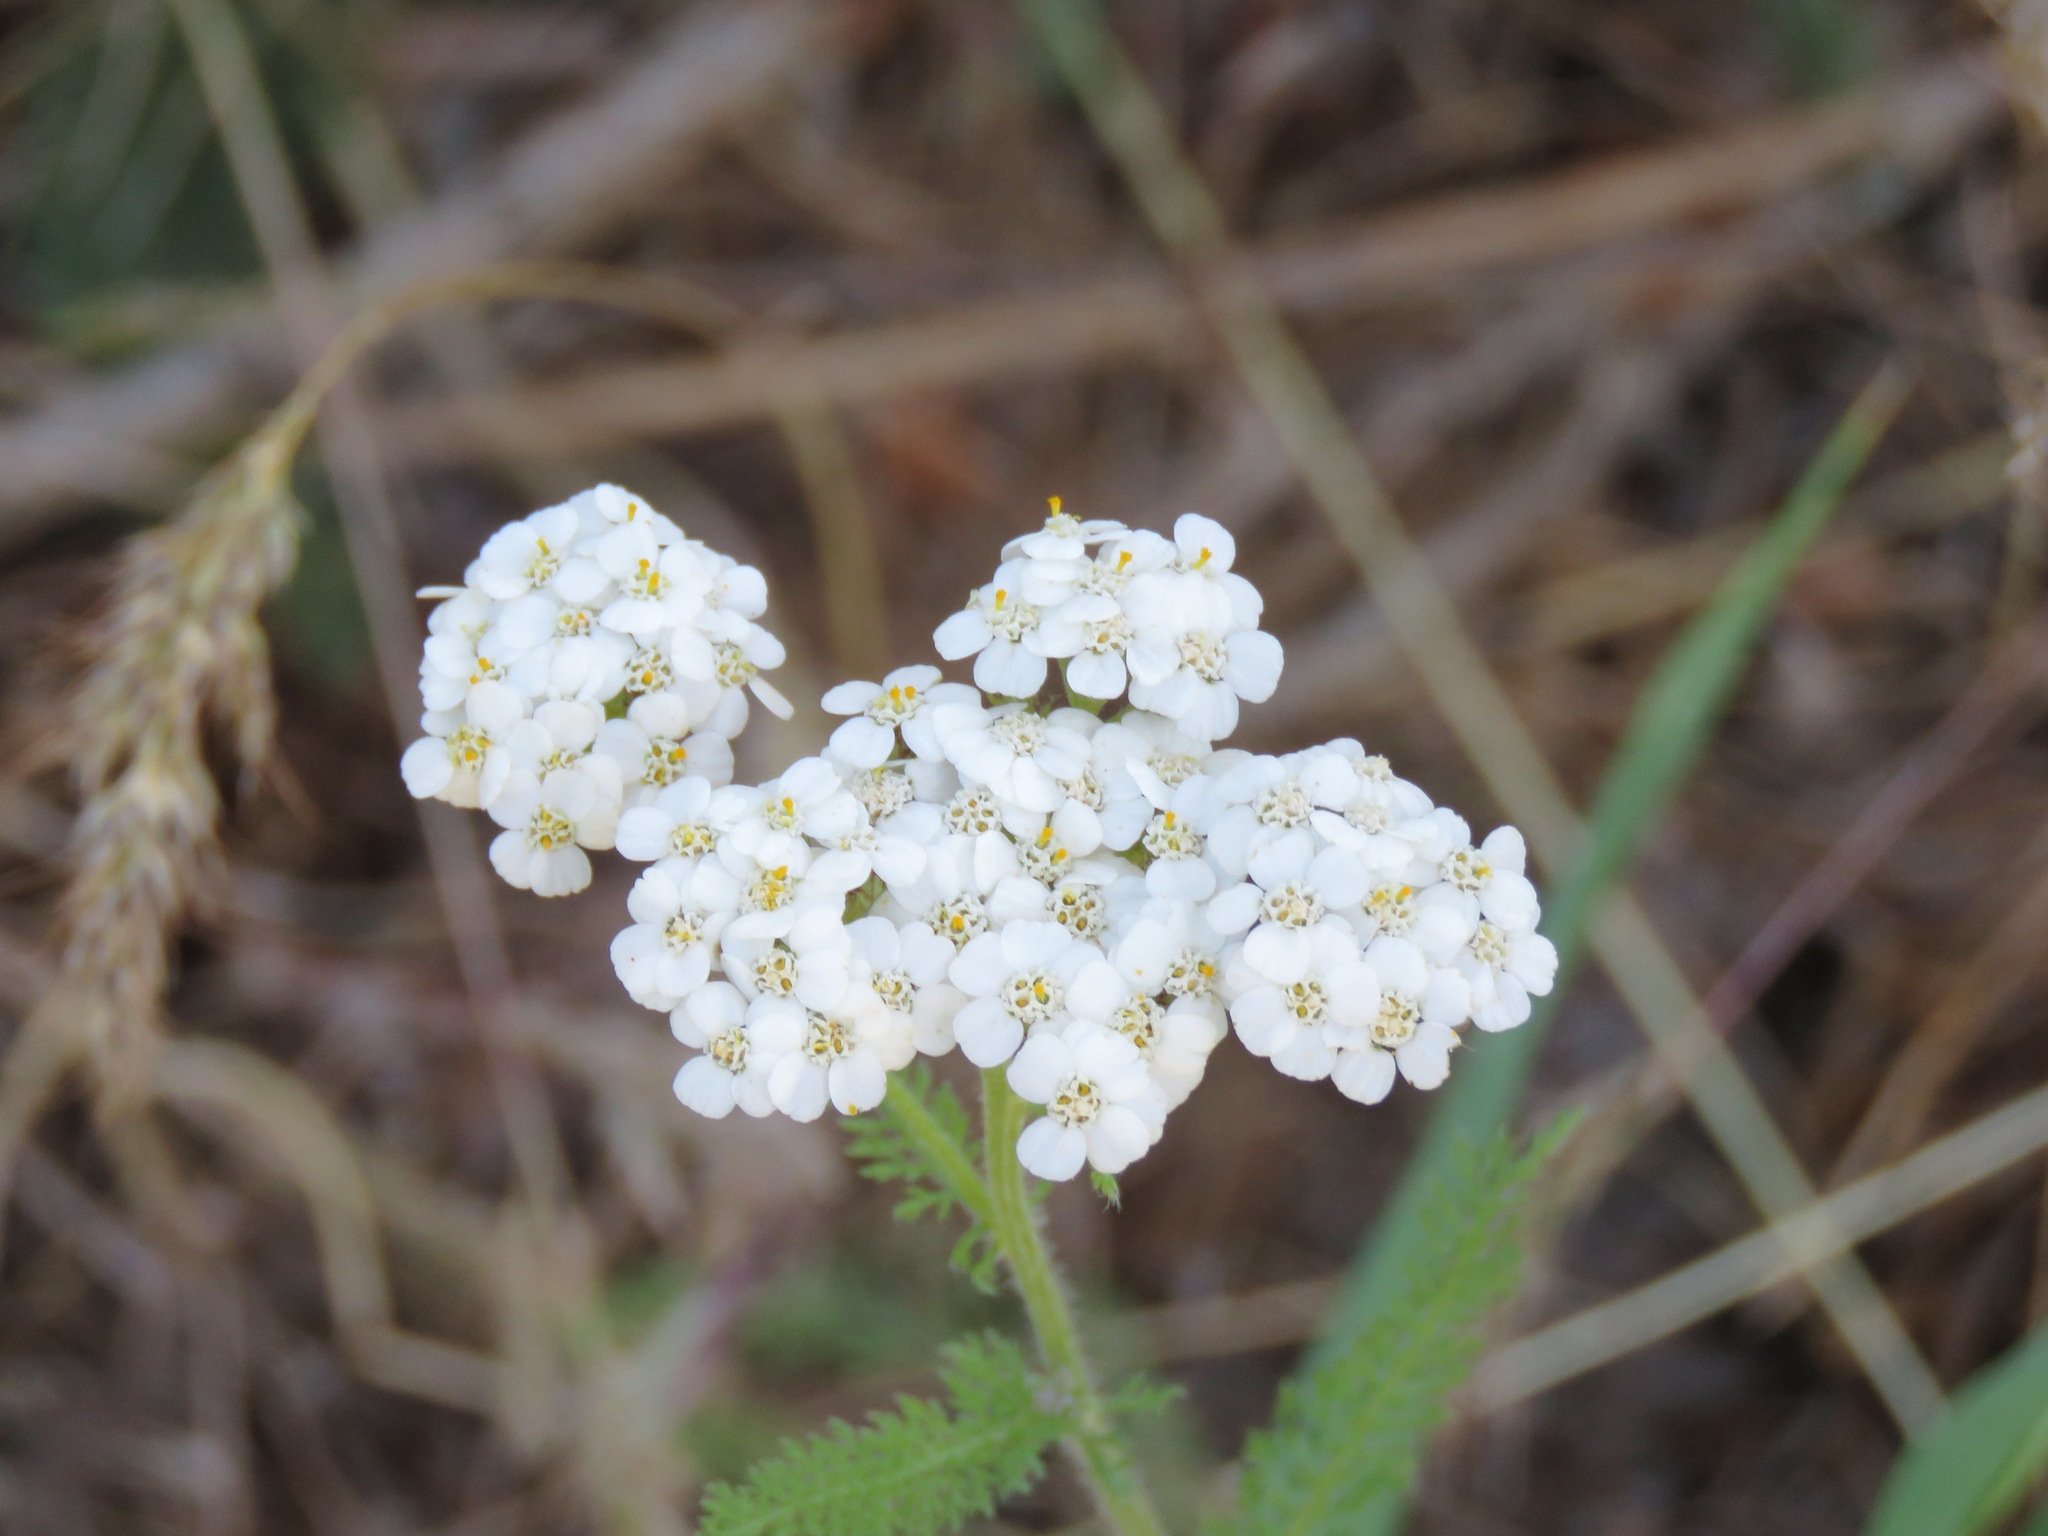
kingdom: Plantae
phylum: Tracheophyta
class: Magnoliopsida
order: Asterales
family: Asteraceae
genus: Achillea
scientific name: Achillea millefolium
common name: Yarrow
